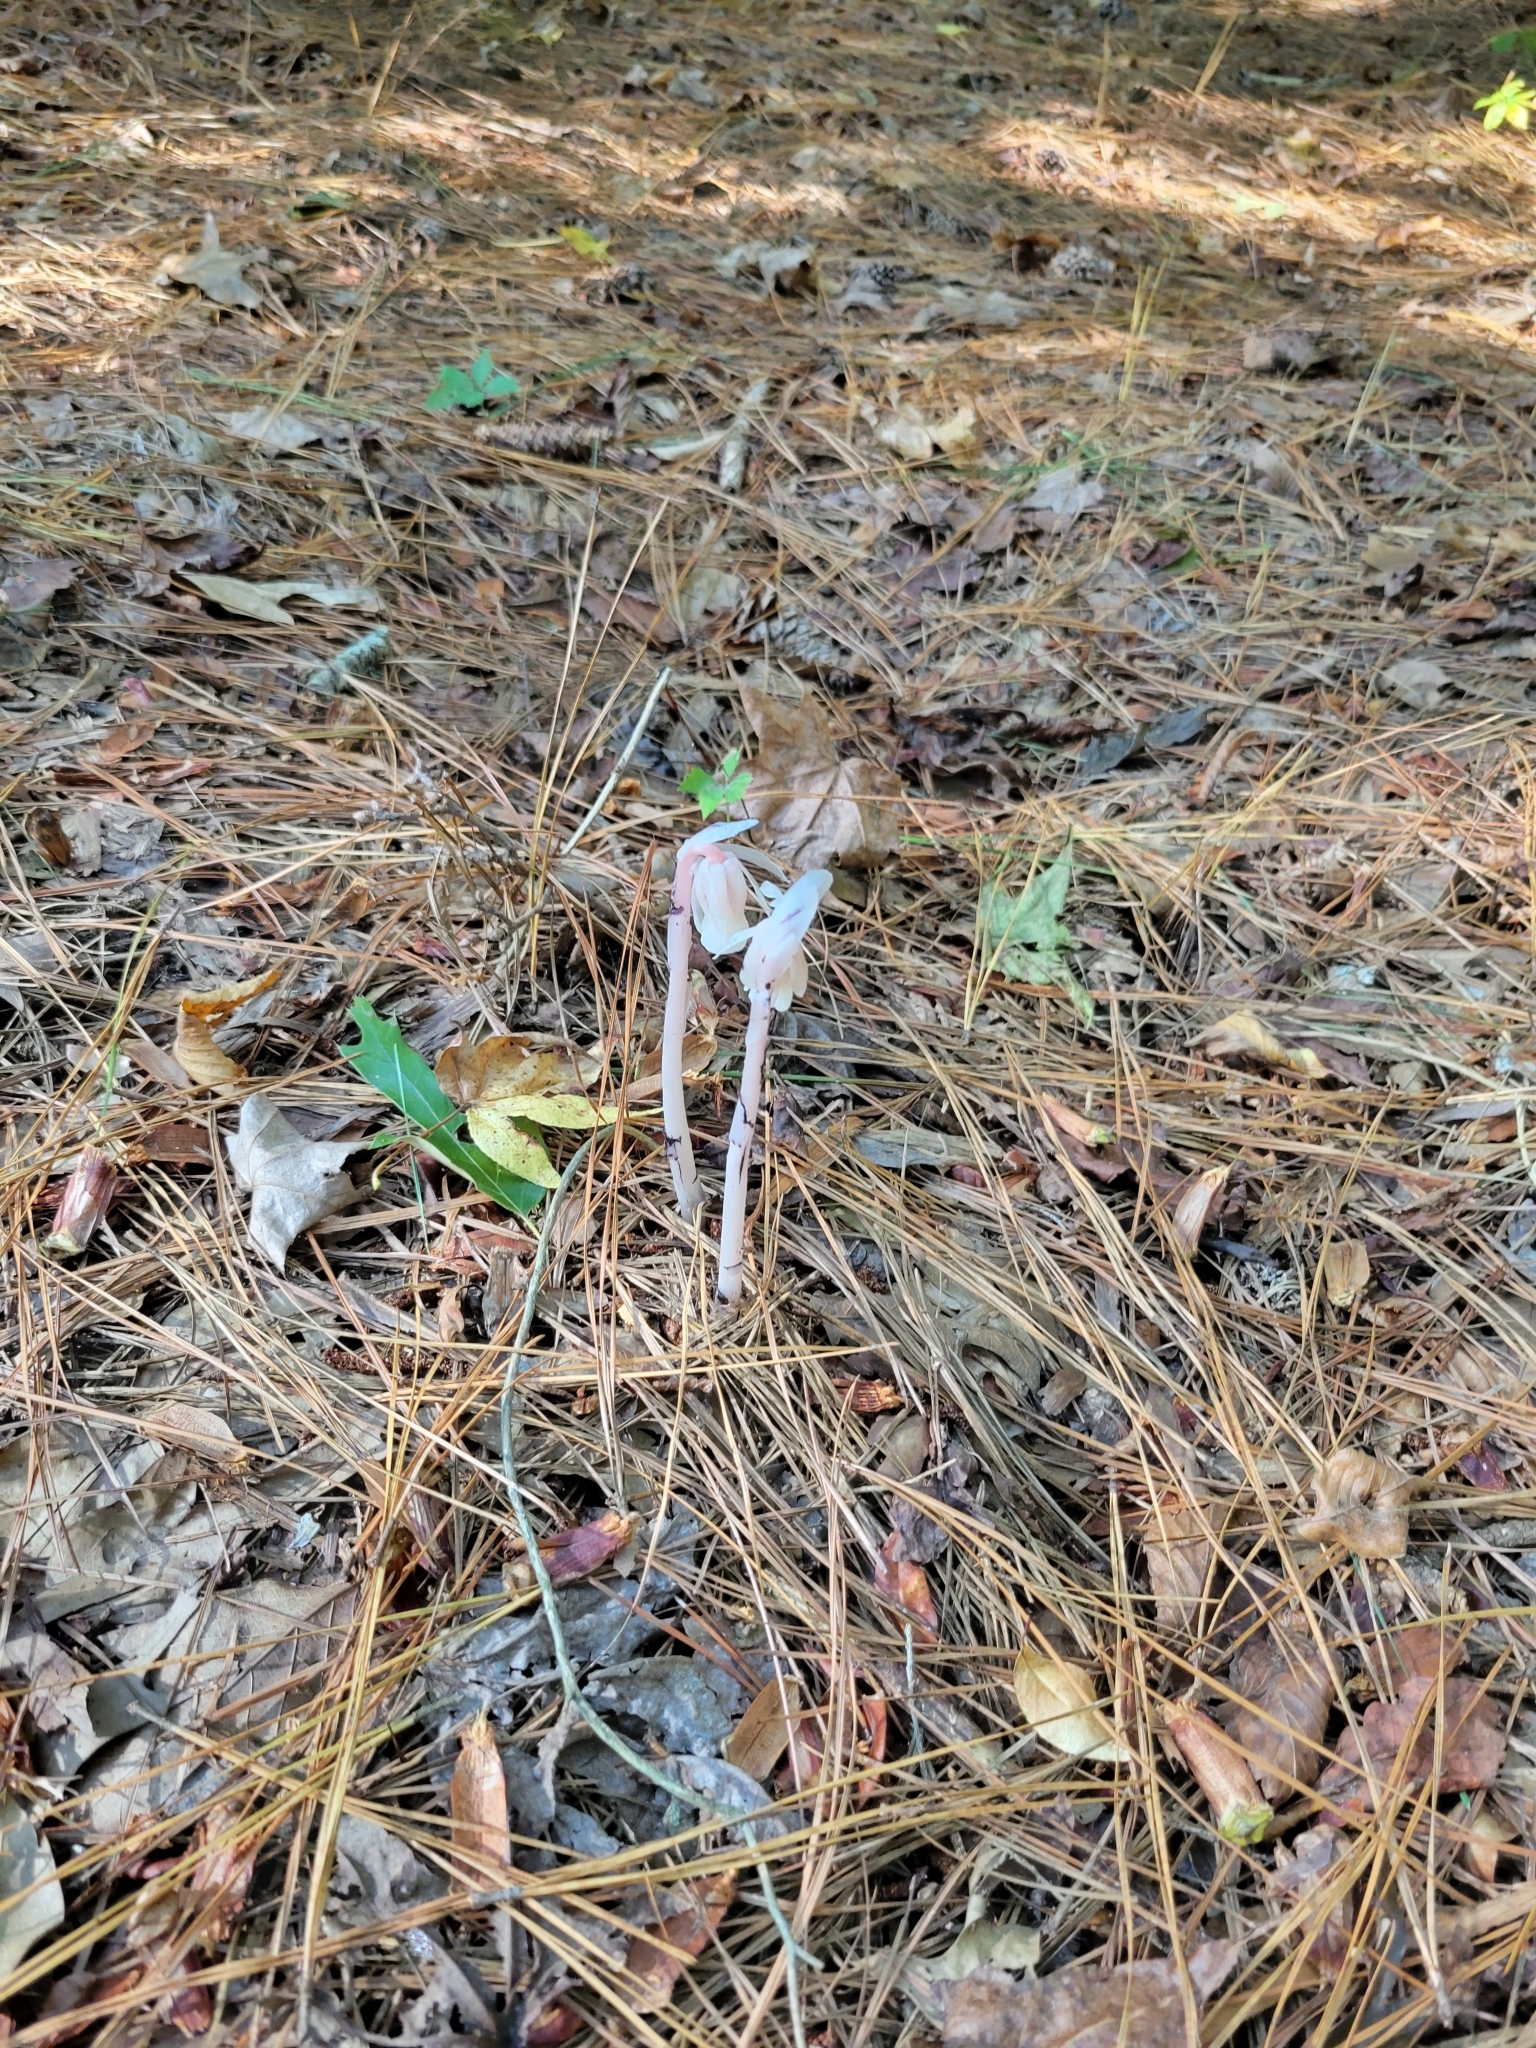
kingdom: Plantae
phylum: Tracheophyta
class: Magnoliopsida
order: Ericales
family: Ericaceae
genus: Monotropa
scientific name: Monotropa uniflora
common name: Convulsion root
